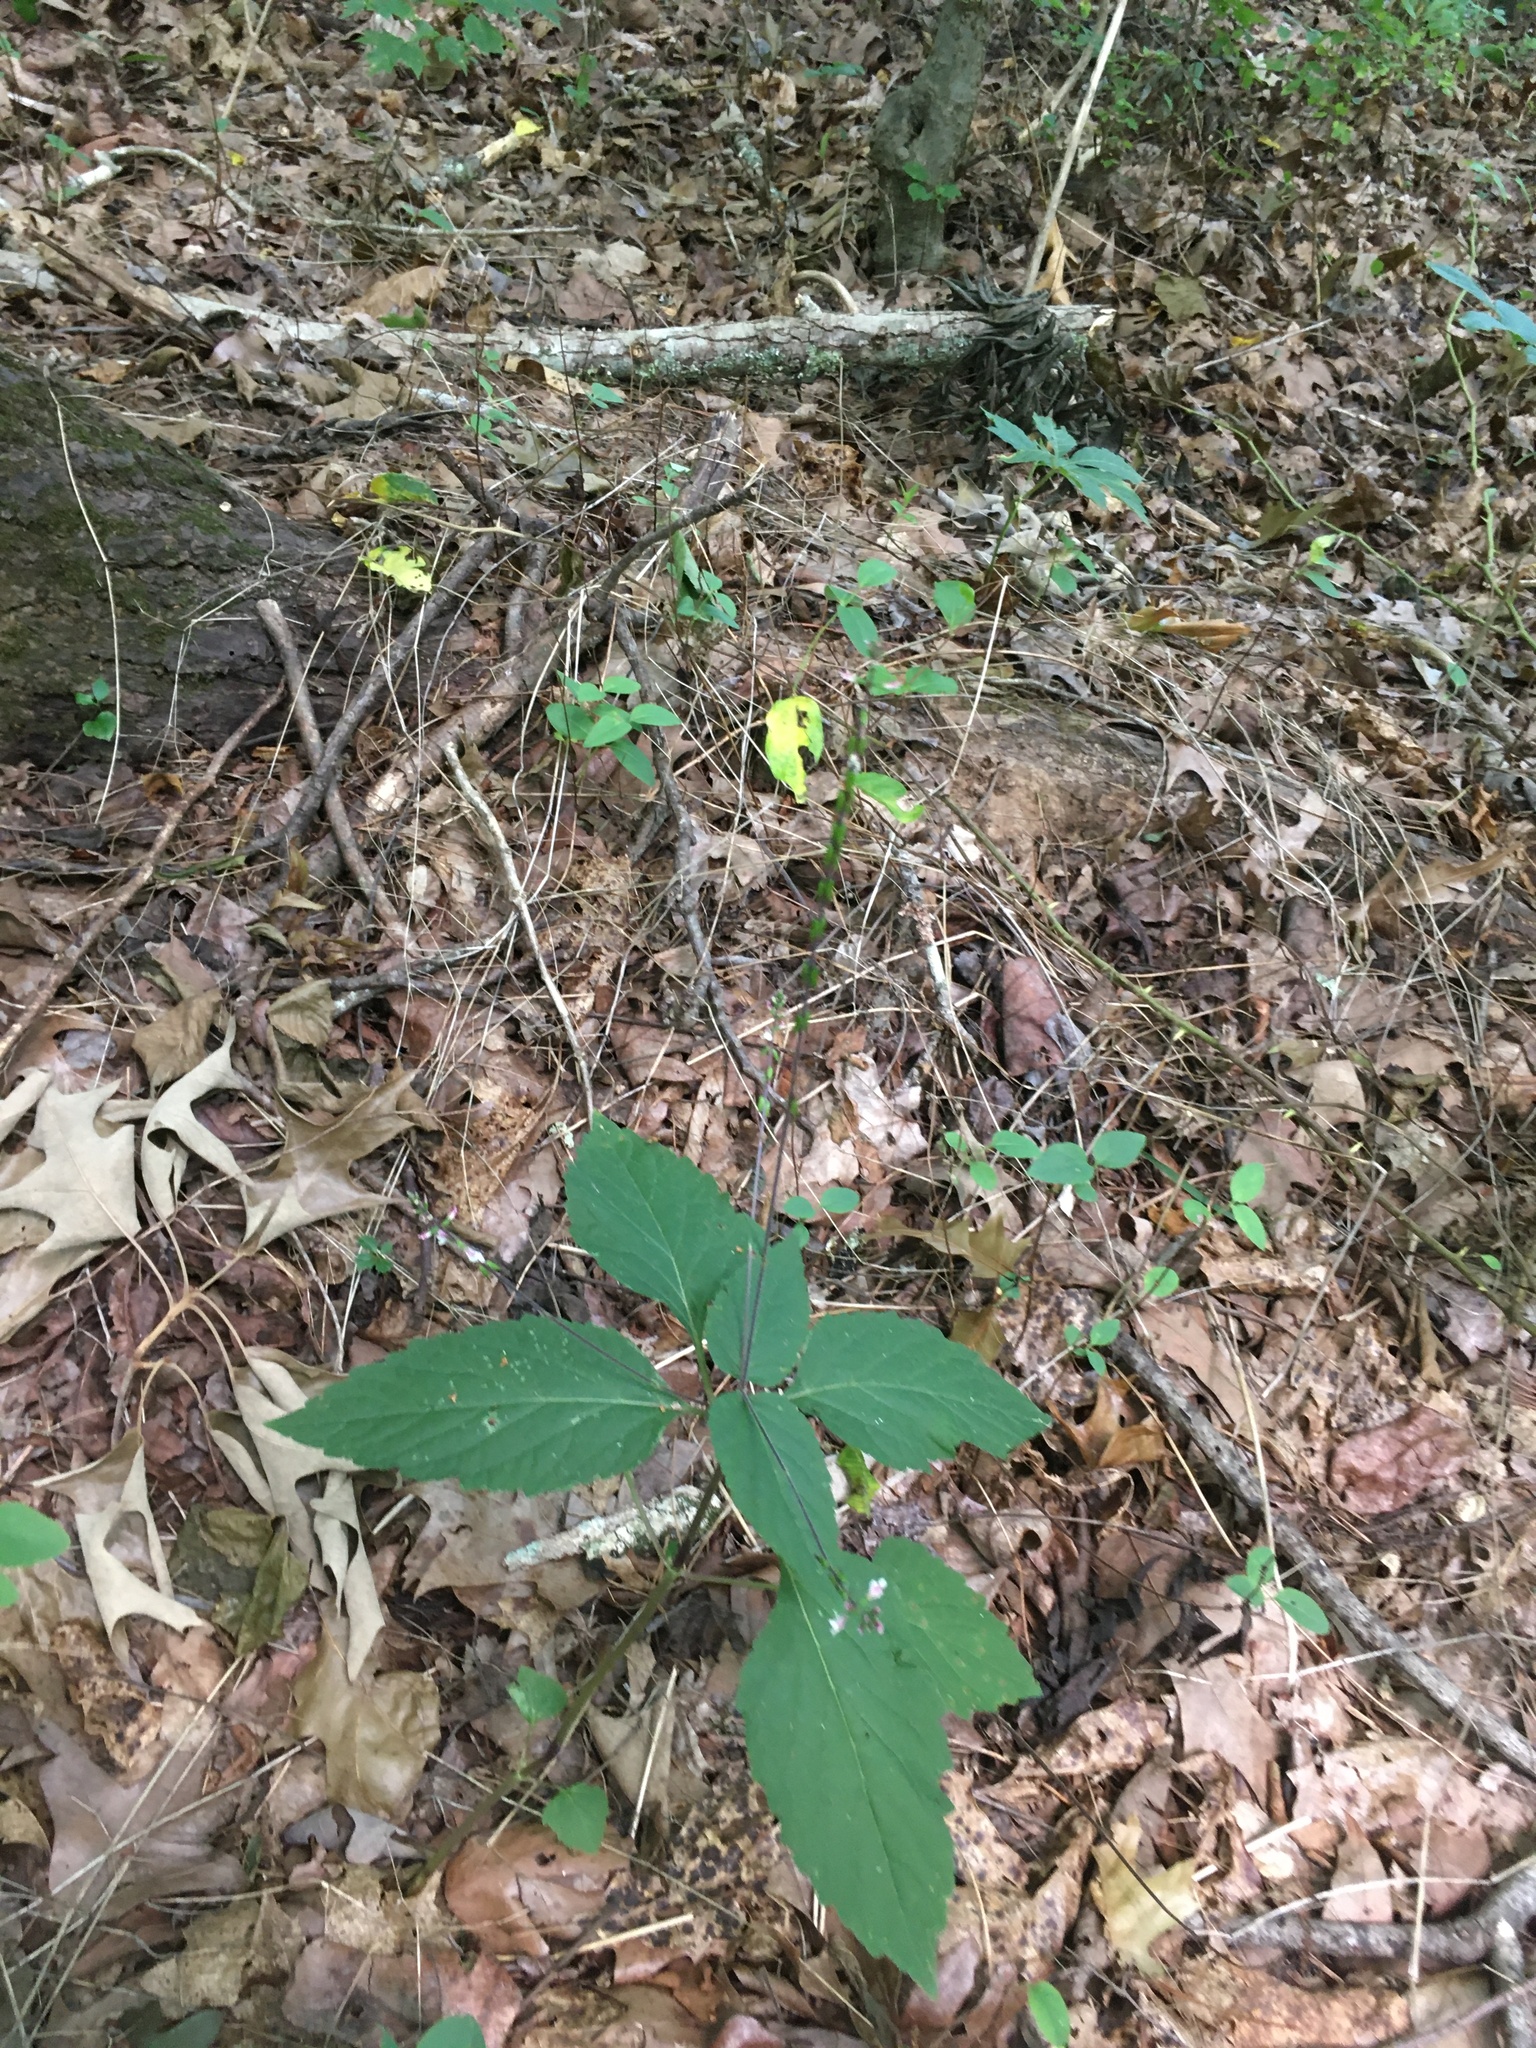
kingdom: Plantae
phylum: Tracheophyta
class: Magnoliopsida
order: Lamiales
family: Phrymaceae
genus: Phryma
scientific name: Phryma leptostachya
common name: American lopseed
